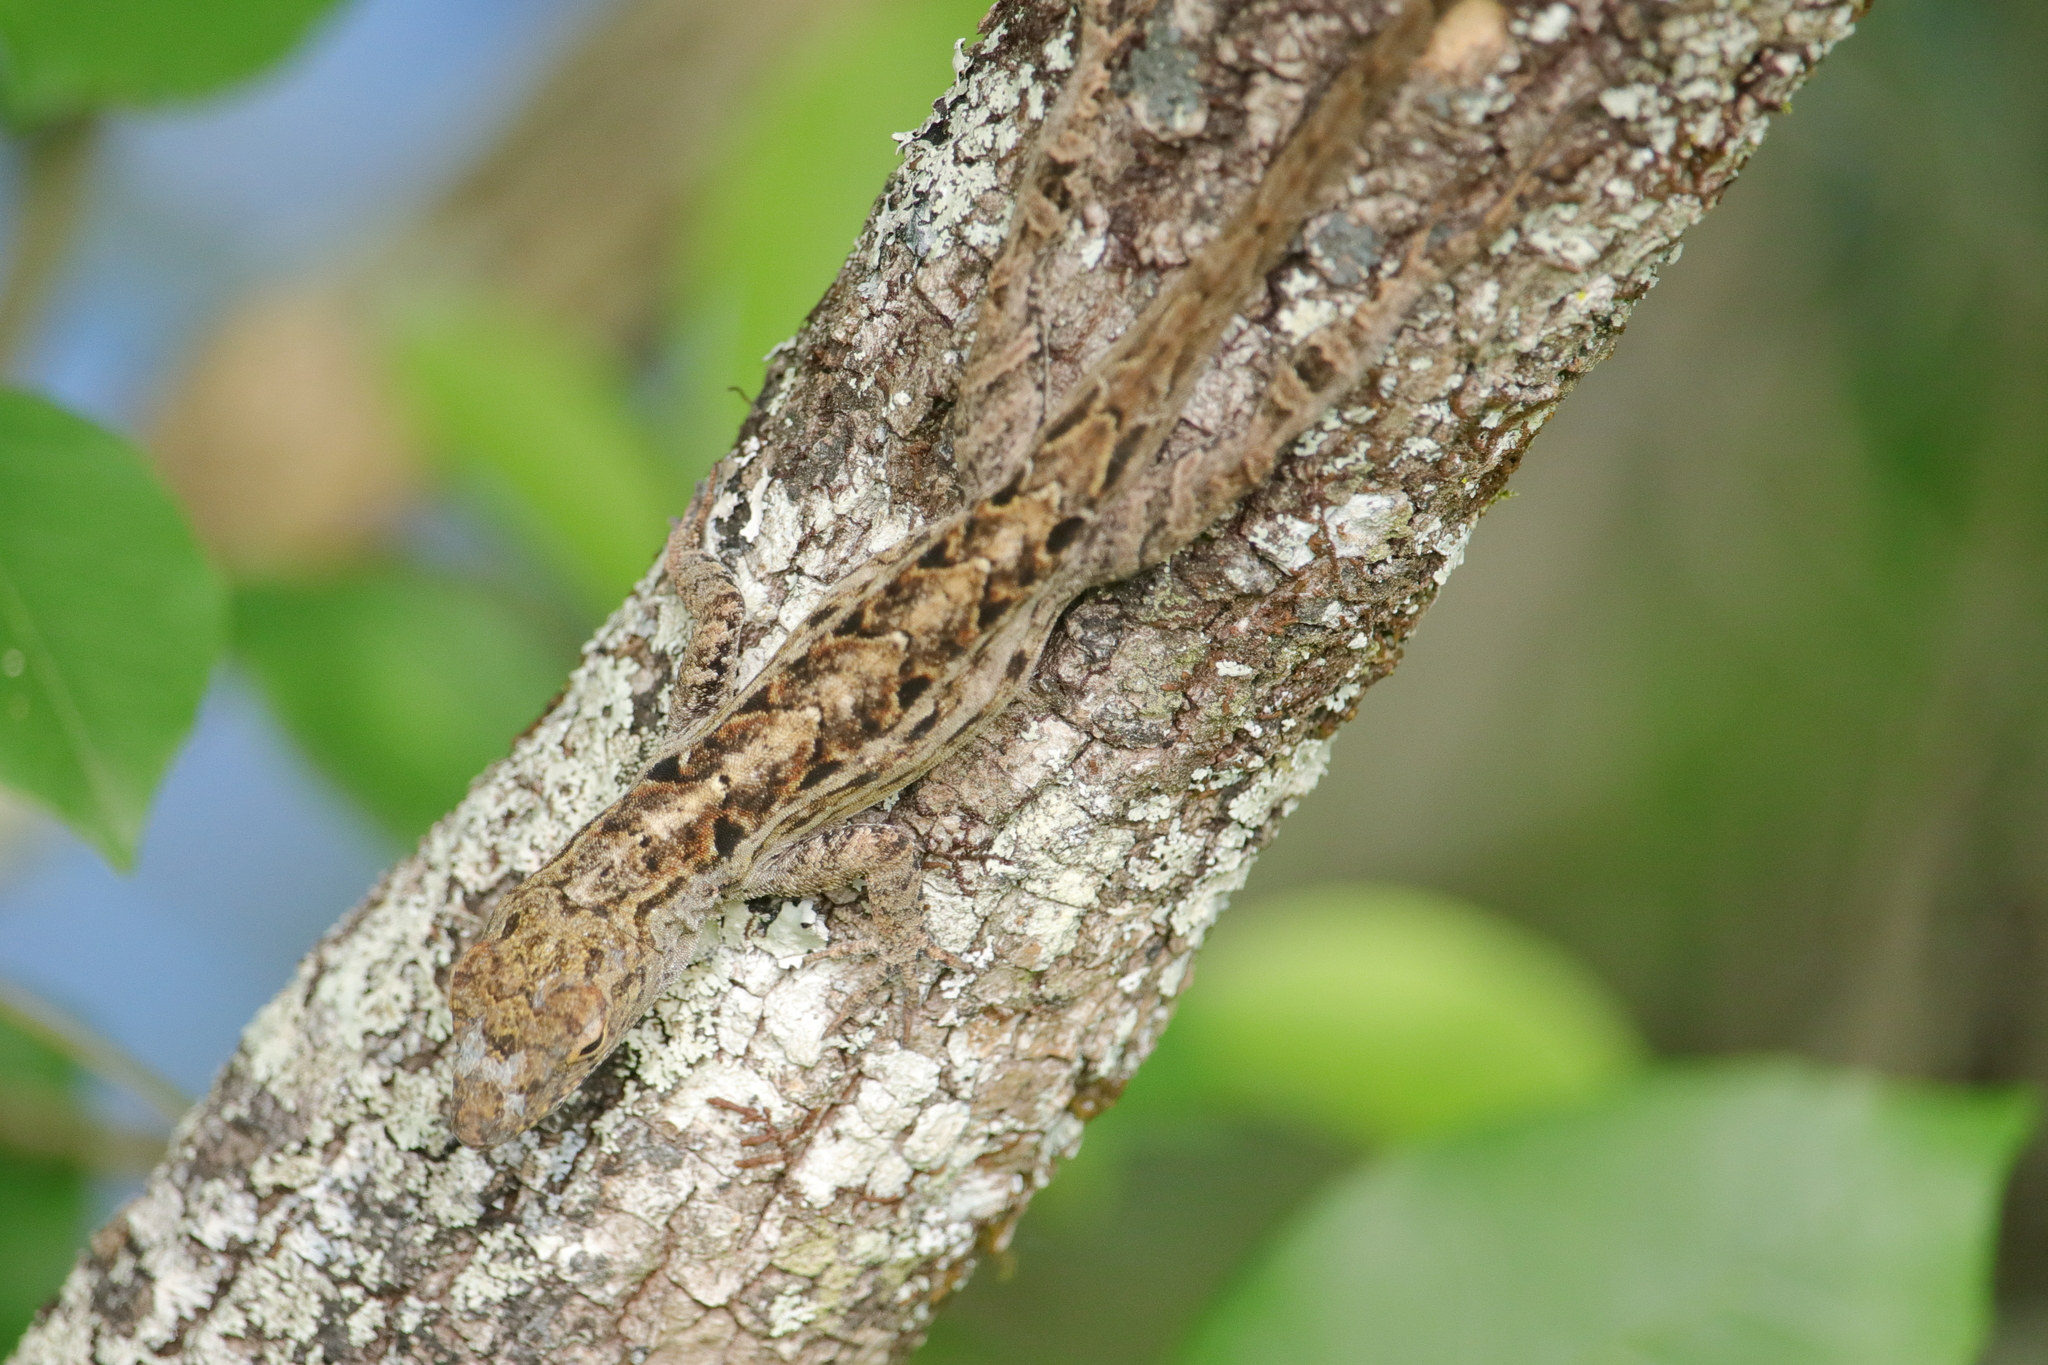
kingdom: Animalia
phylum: Chordata
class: Squamata
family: Dactyloidae
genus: Anolis
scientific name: Anolis sagrei
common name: Brown anole
